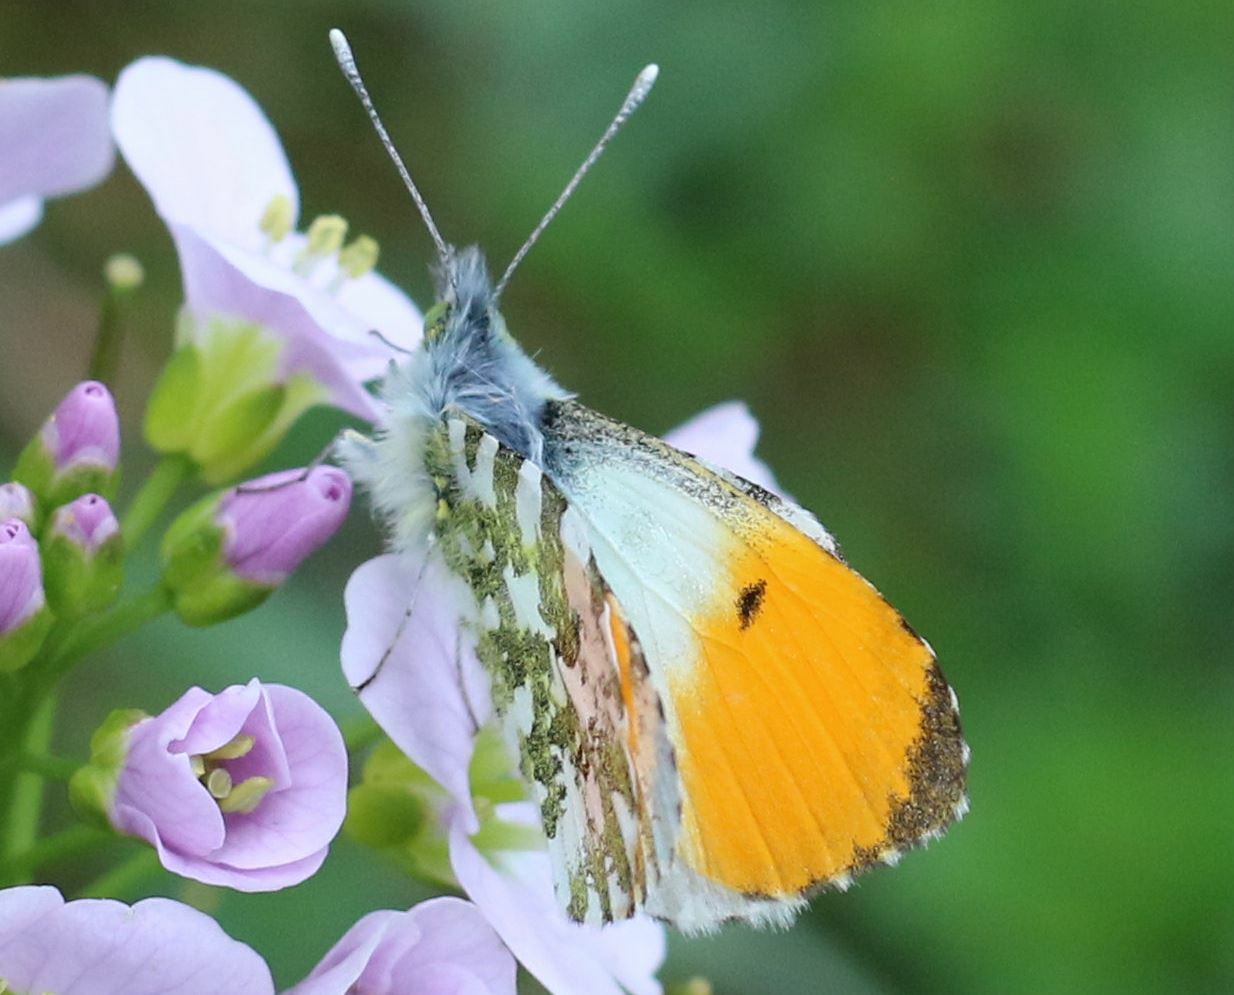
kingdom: Animalia
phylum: Arthropoda
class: Insecta
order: Lepidoptera
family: Pieridae
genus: Anthocharis
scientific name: Anthocharis cardamines
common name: Orange-tip
